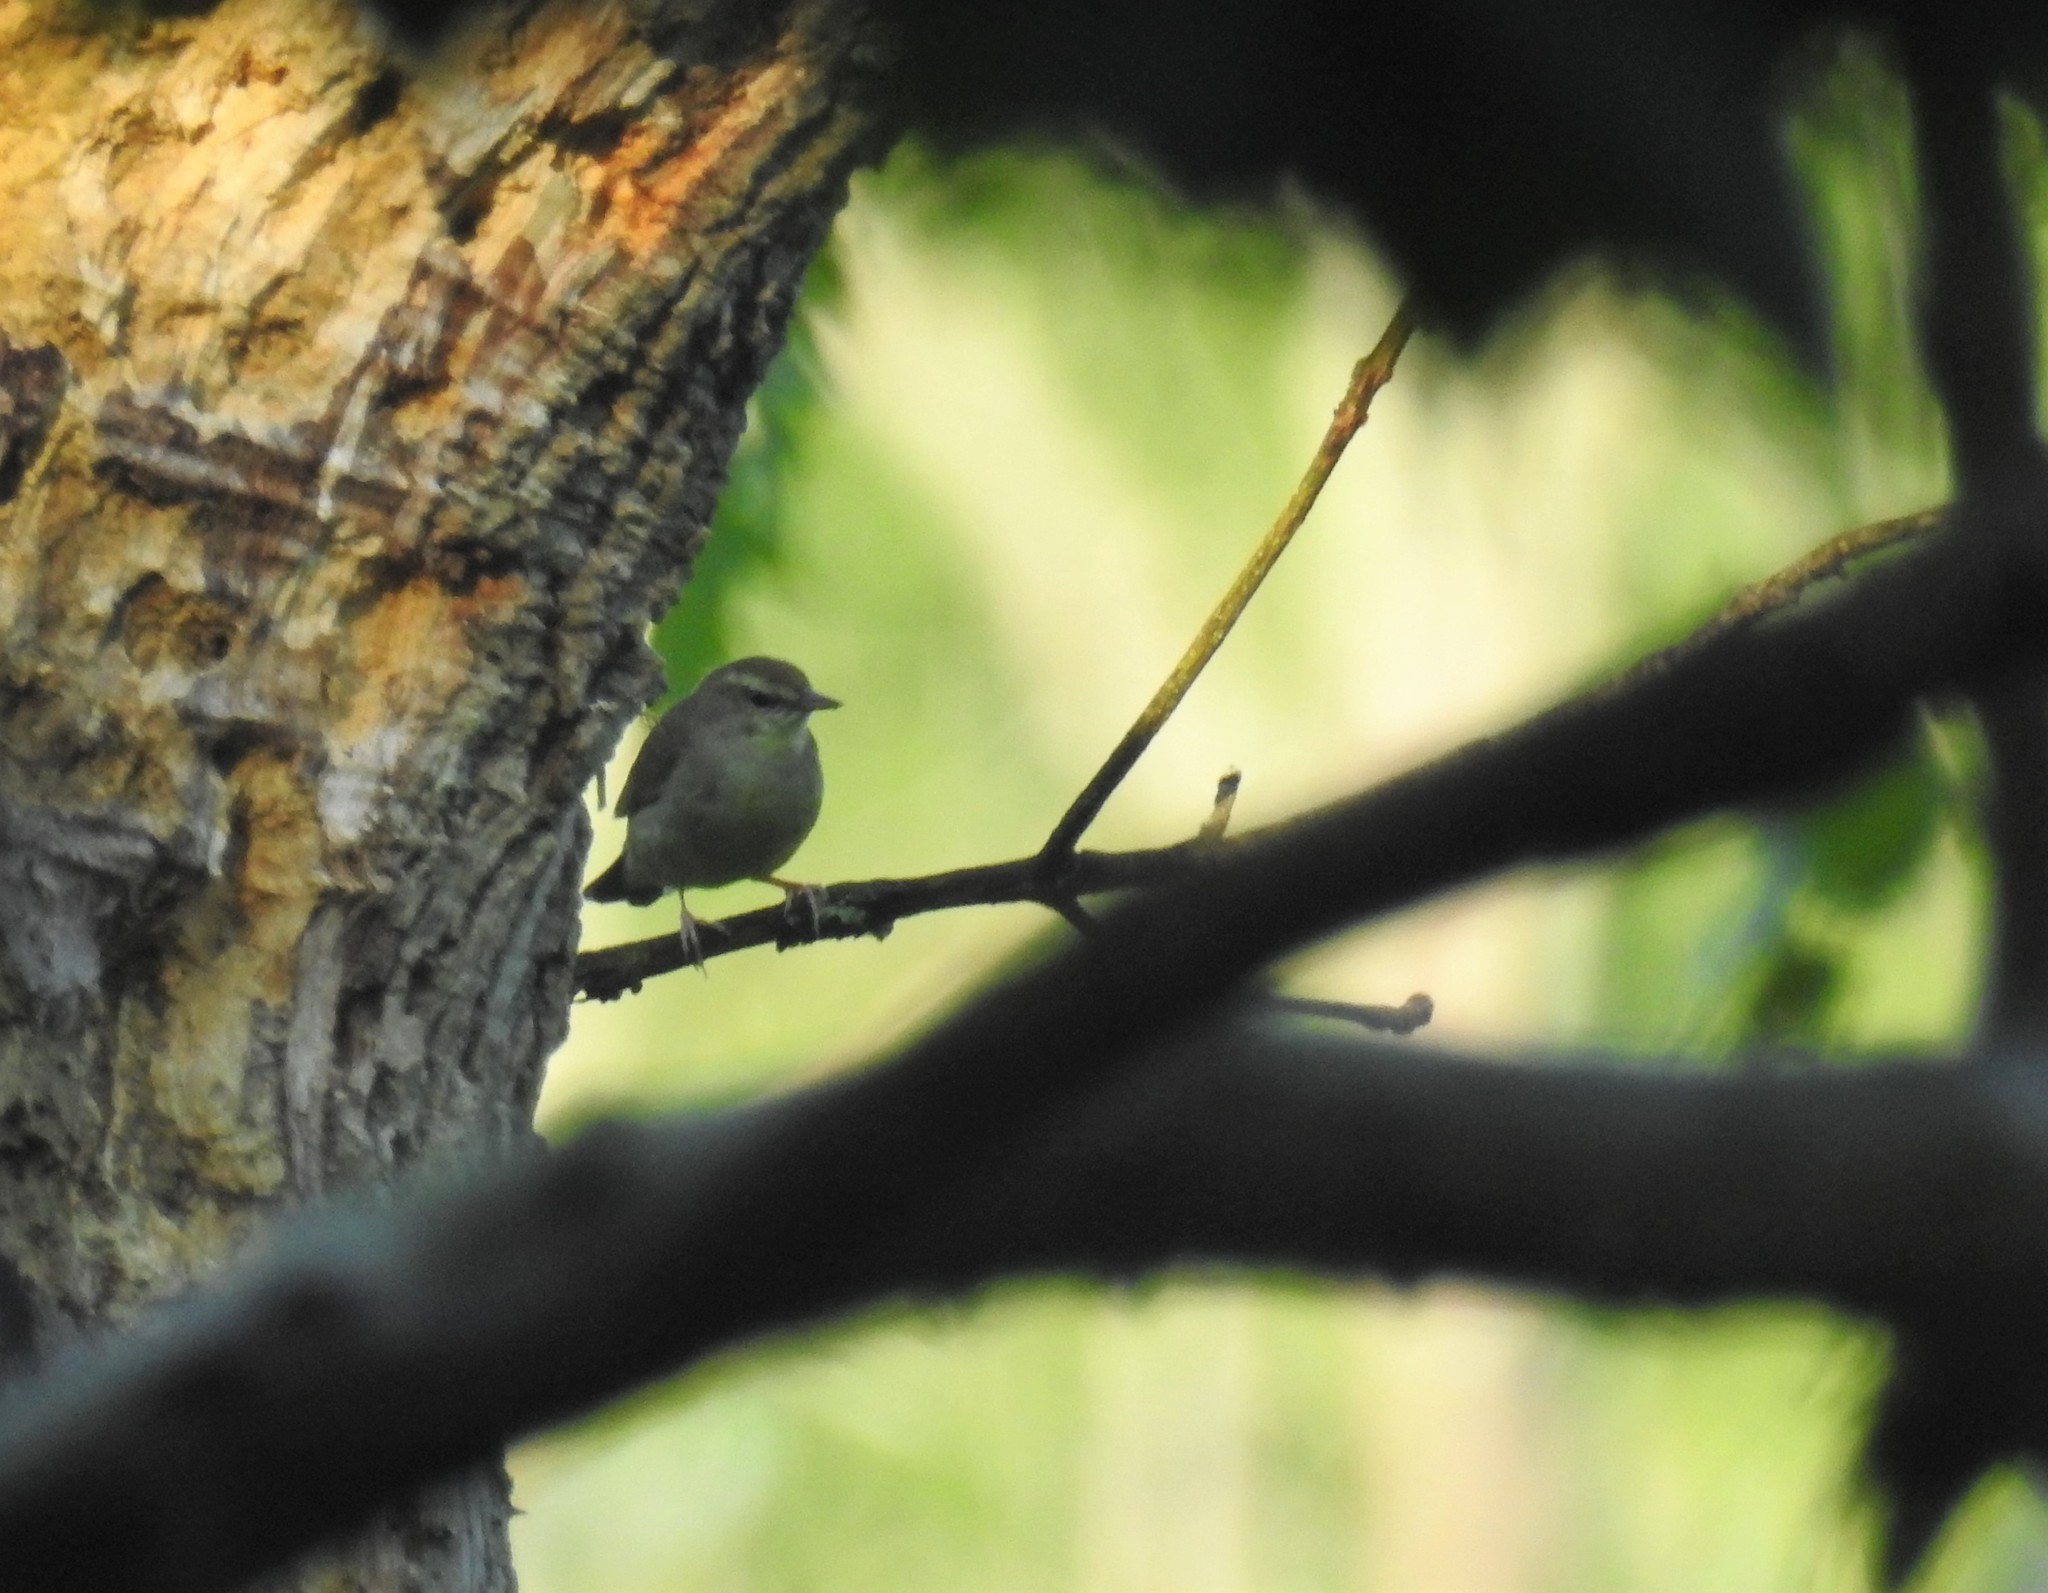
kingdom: Animalia
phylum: Chordata
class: Aves
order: Passeriformes
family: Parulidae
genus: Limnothlypis
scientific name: Limnothlypis swainsonii
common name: Swainson's warbler
